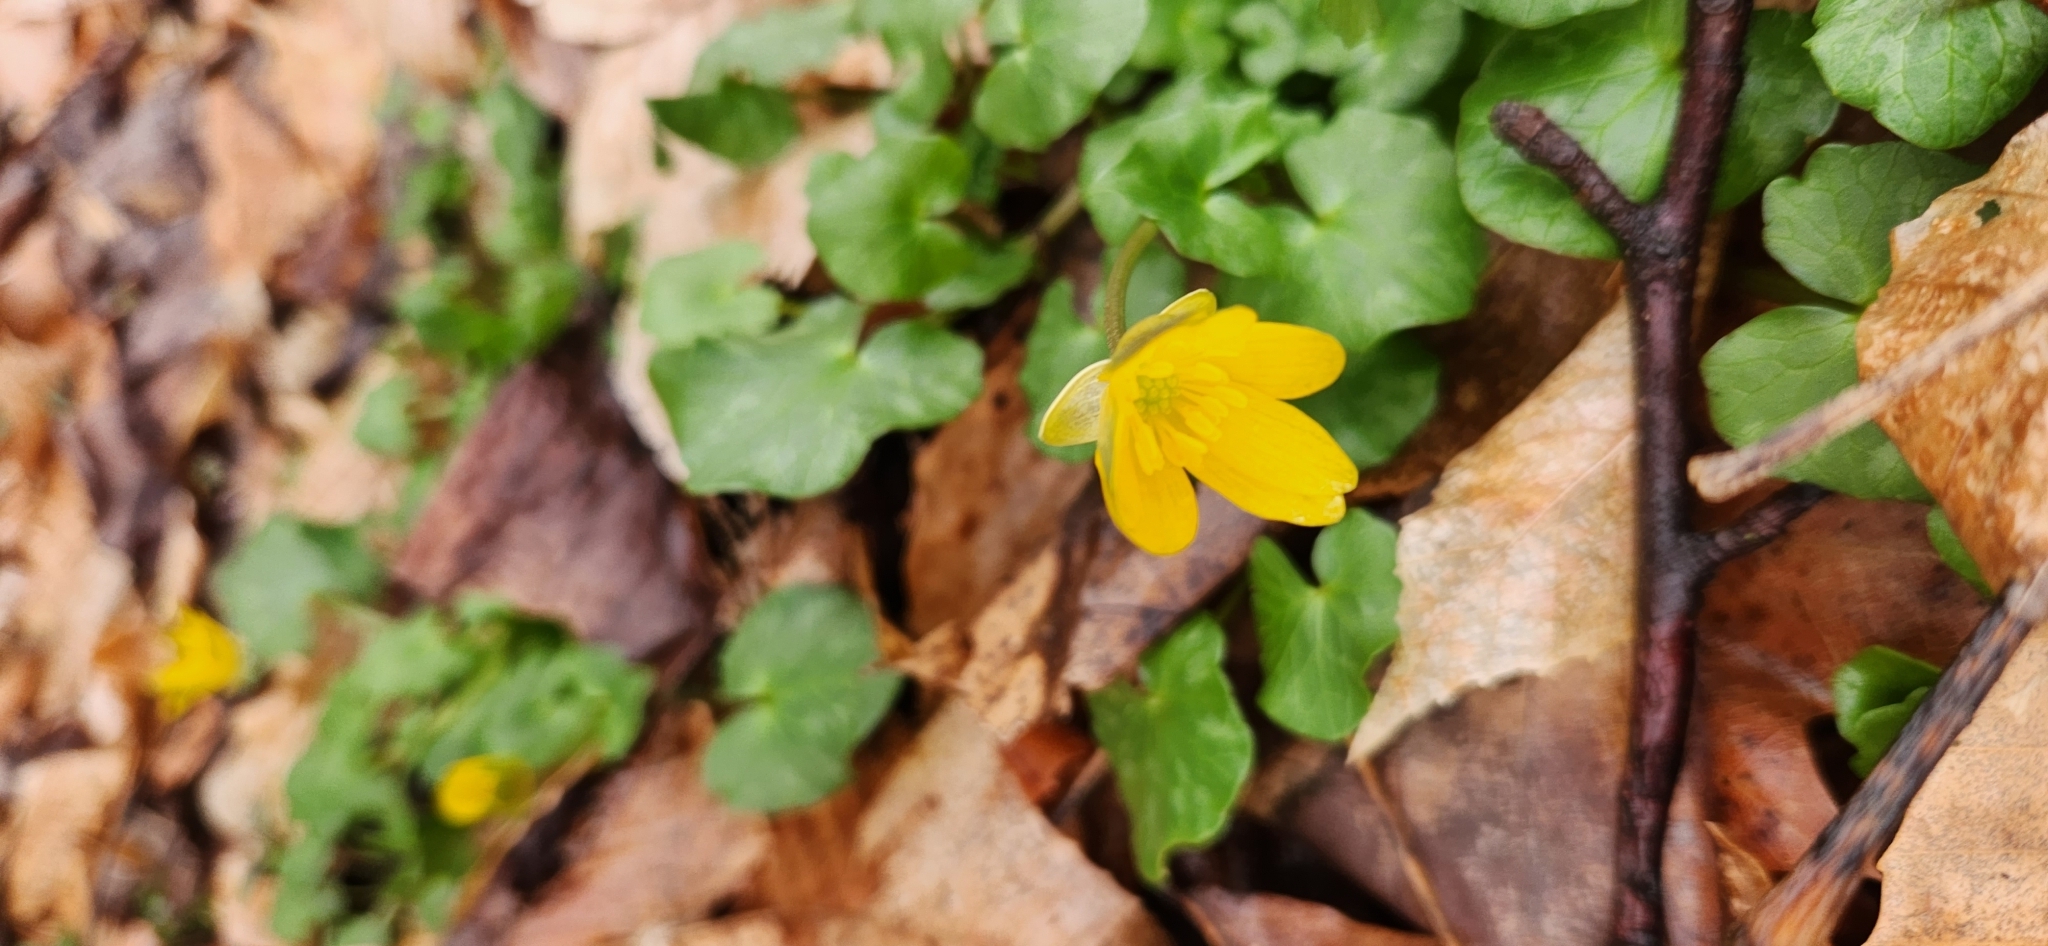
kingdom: Plantae
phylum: Tracheophyta
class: Magnoliopsida
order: Ranunculales
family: Ranunculaceae
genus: Ficaria
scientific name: Ficaria verna
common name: Lesser celandine
